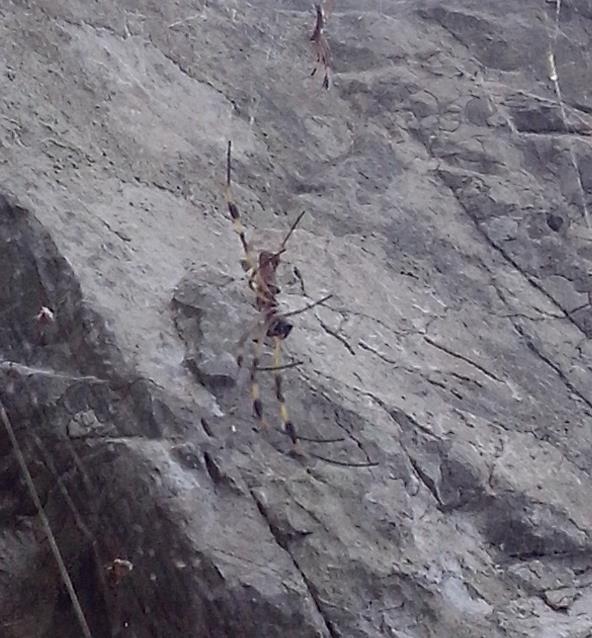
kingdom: Animalia
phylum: Arthropoda
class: Arachnida
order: Araneae
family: Araneidae
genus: Trichonephila
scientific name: Trichonephila clavipes
